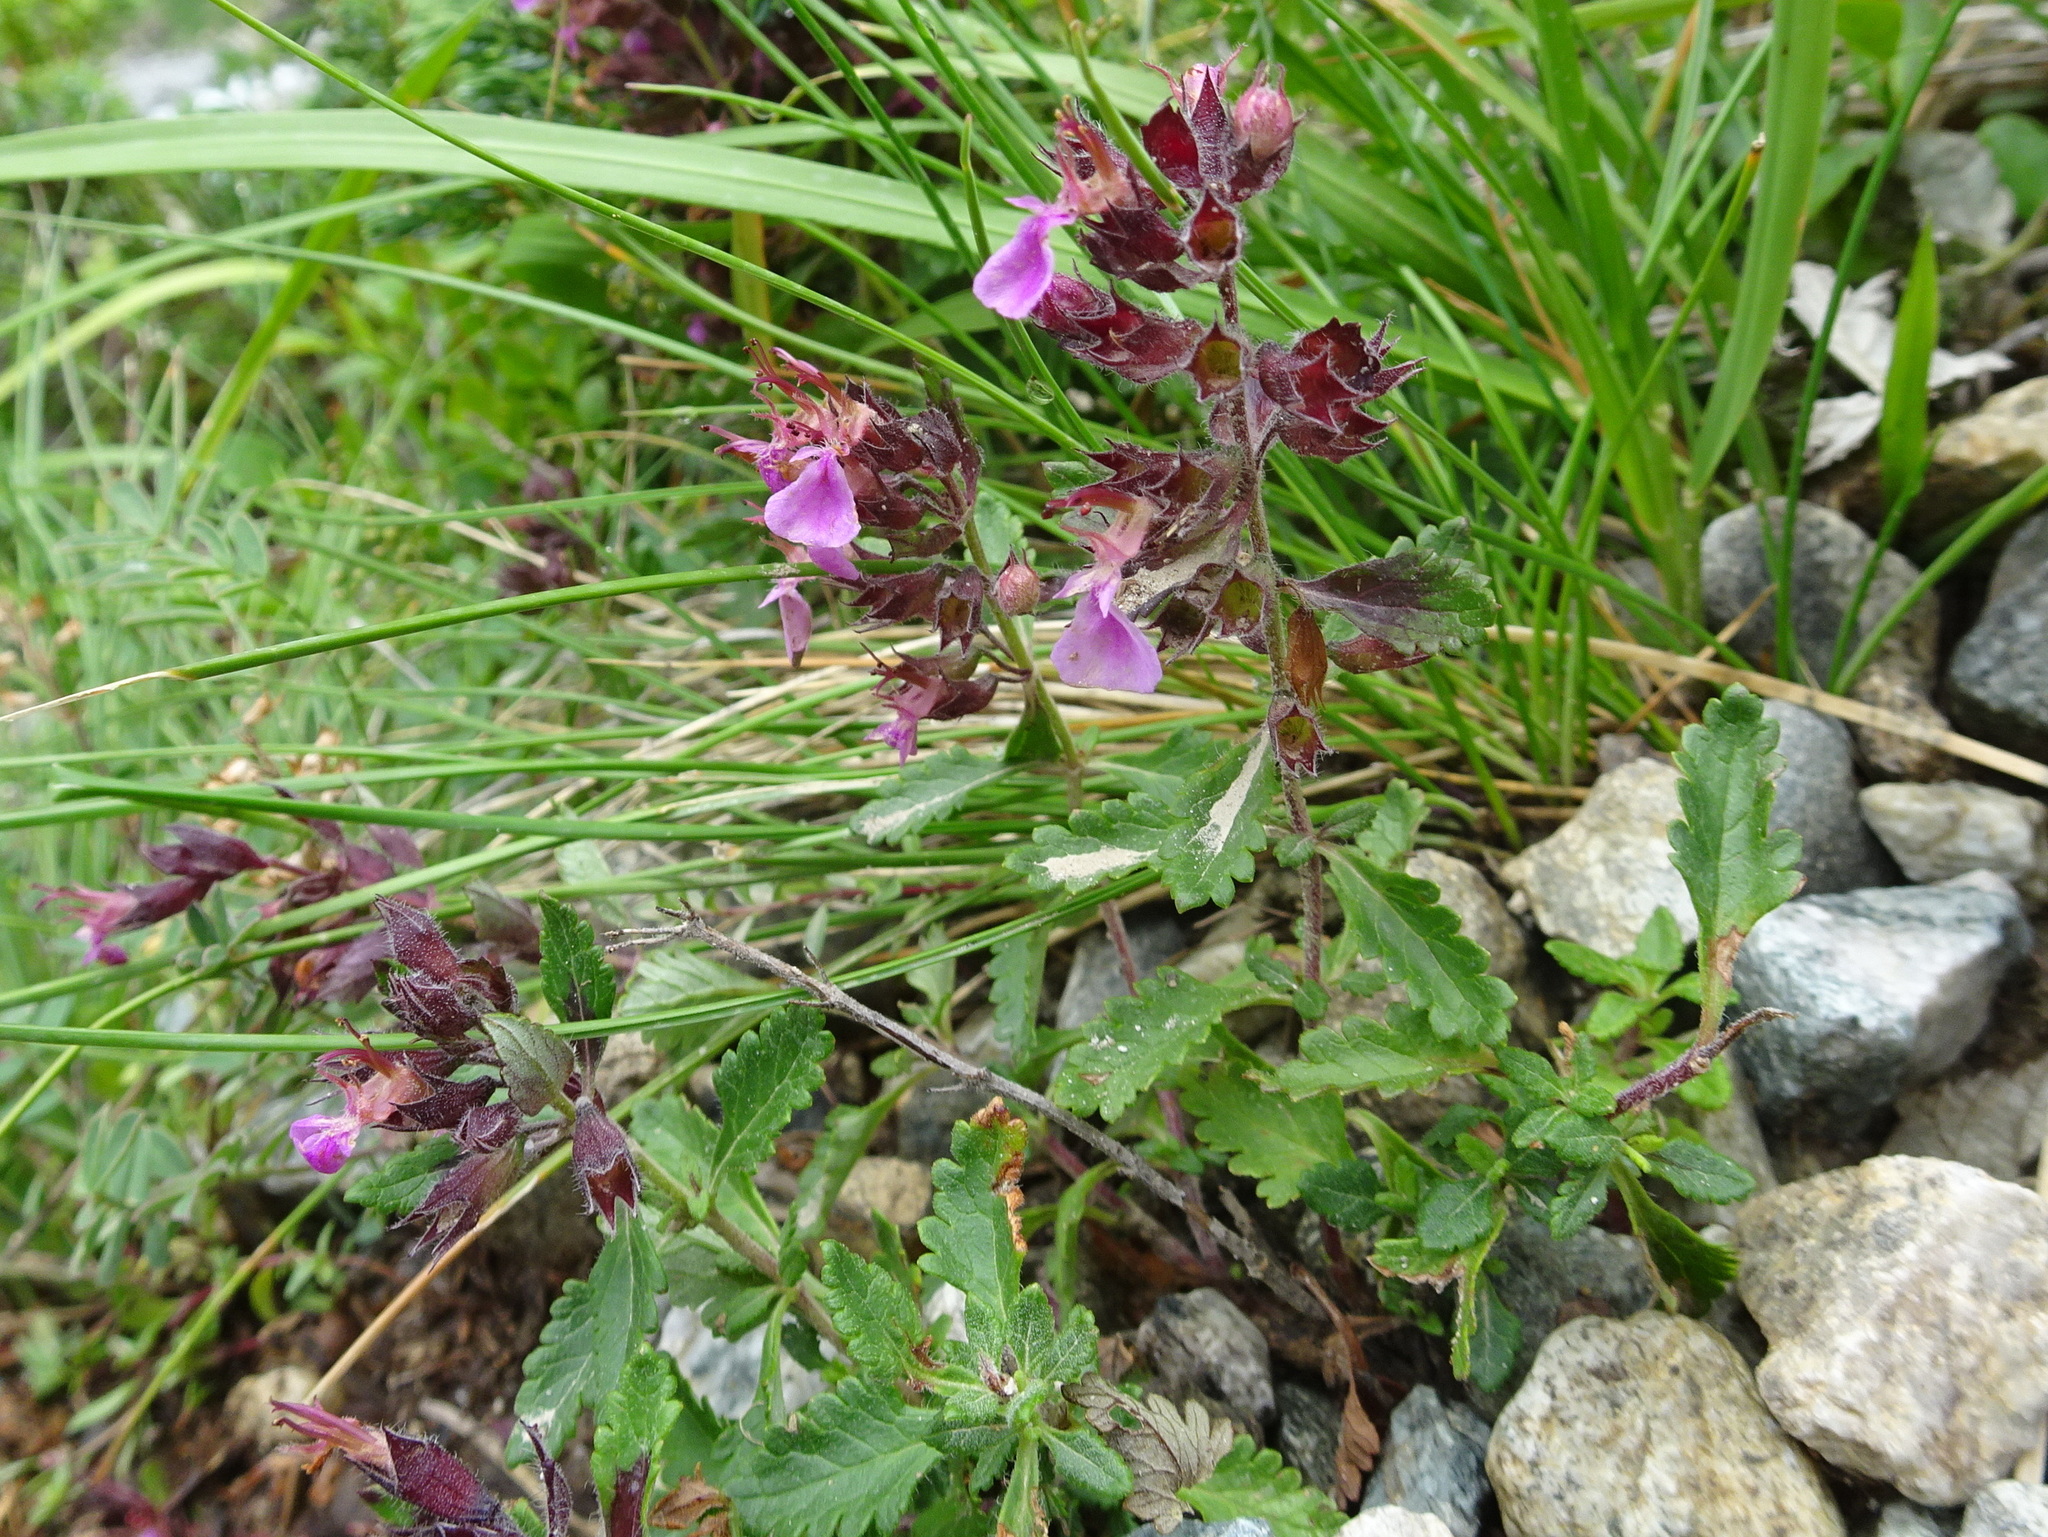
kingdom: Plantae
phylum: Tracheophyta
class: Magnoliopsida
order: Lamiales
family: Lamiaceae
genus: Teucrium
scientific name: Teucrium chamaedrys
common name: Wall germander
